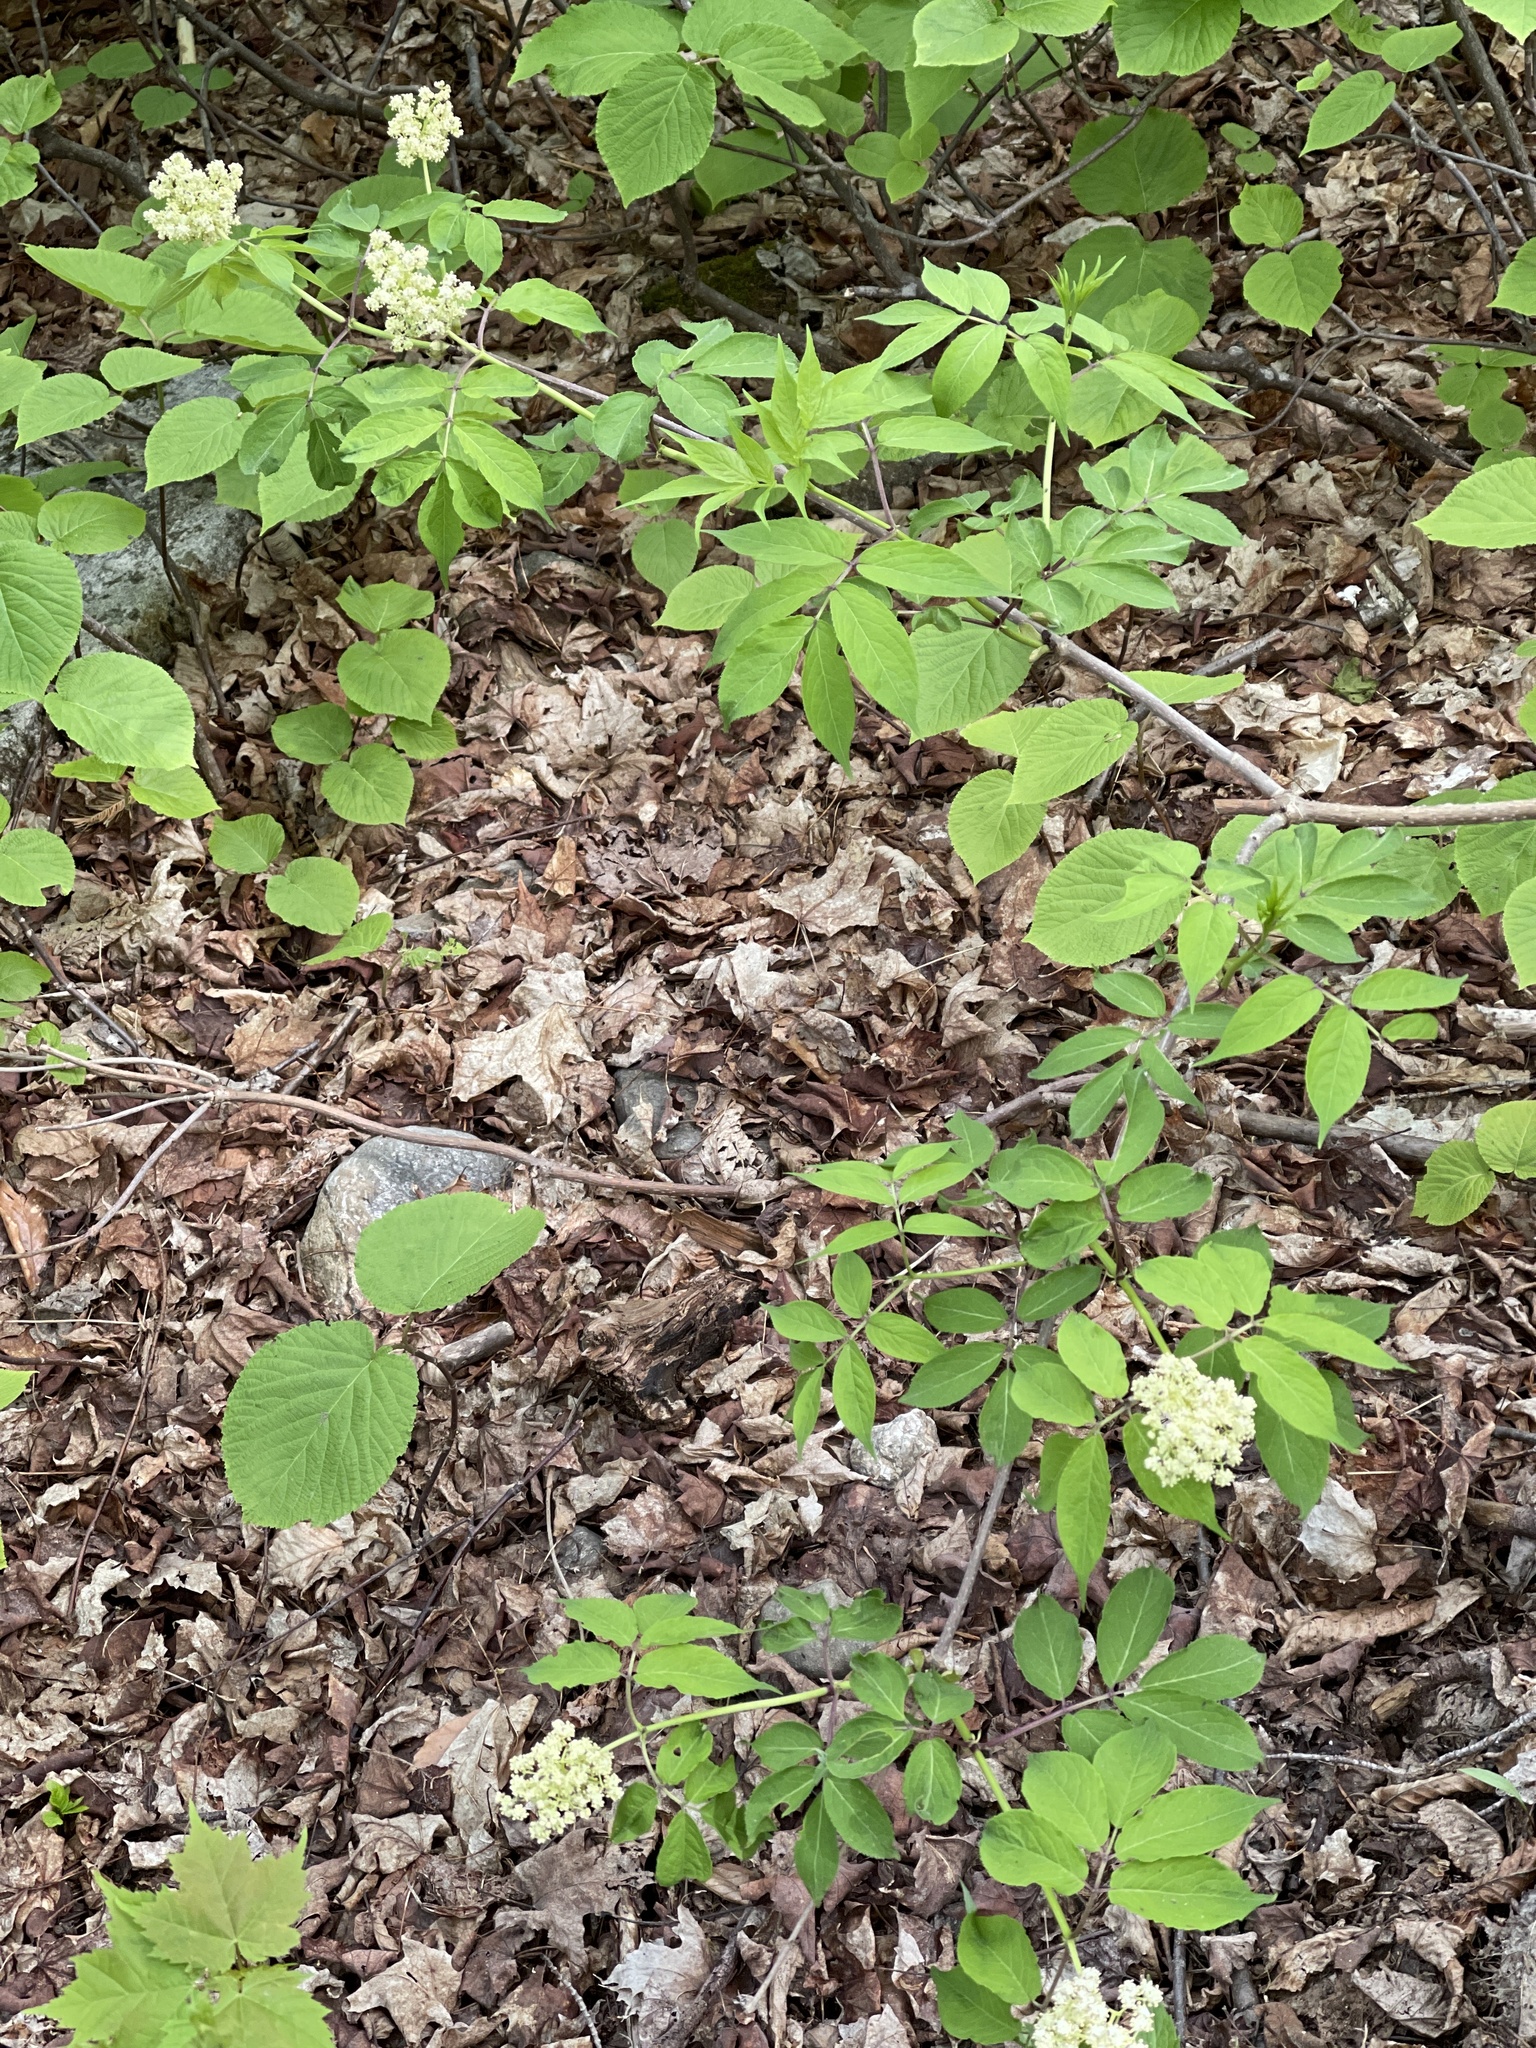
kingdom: Plantae
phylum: Tracheophyta
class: Magnoliopsida
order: Dipsacales
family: Viburnaceae
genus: Sambucus
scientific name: Sambucus racemosa
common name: Red-berried elder
